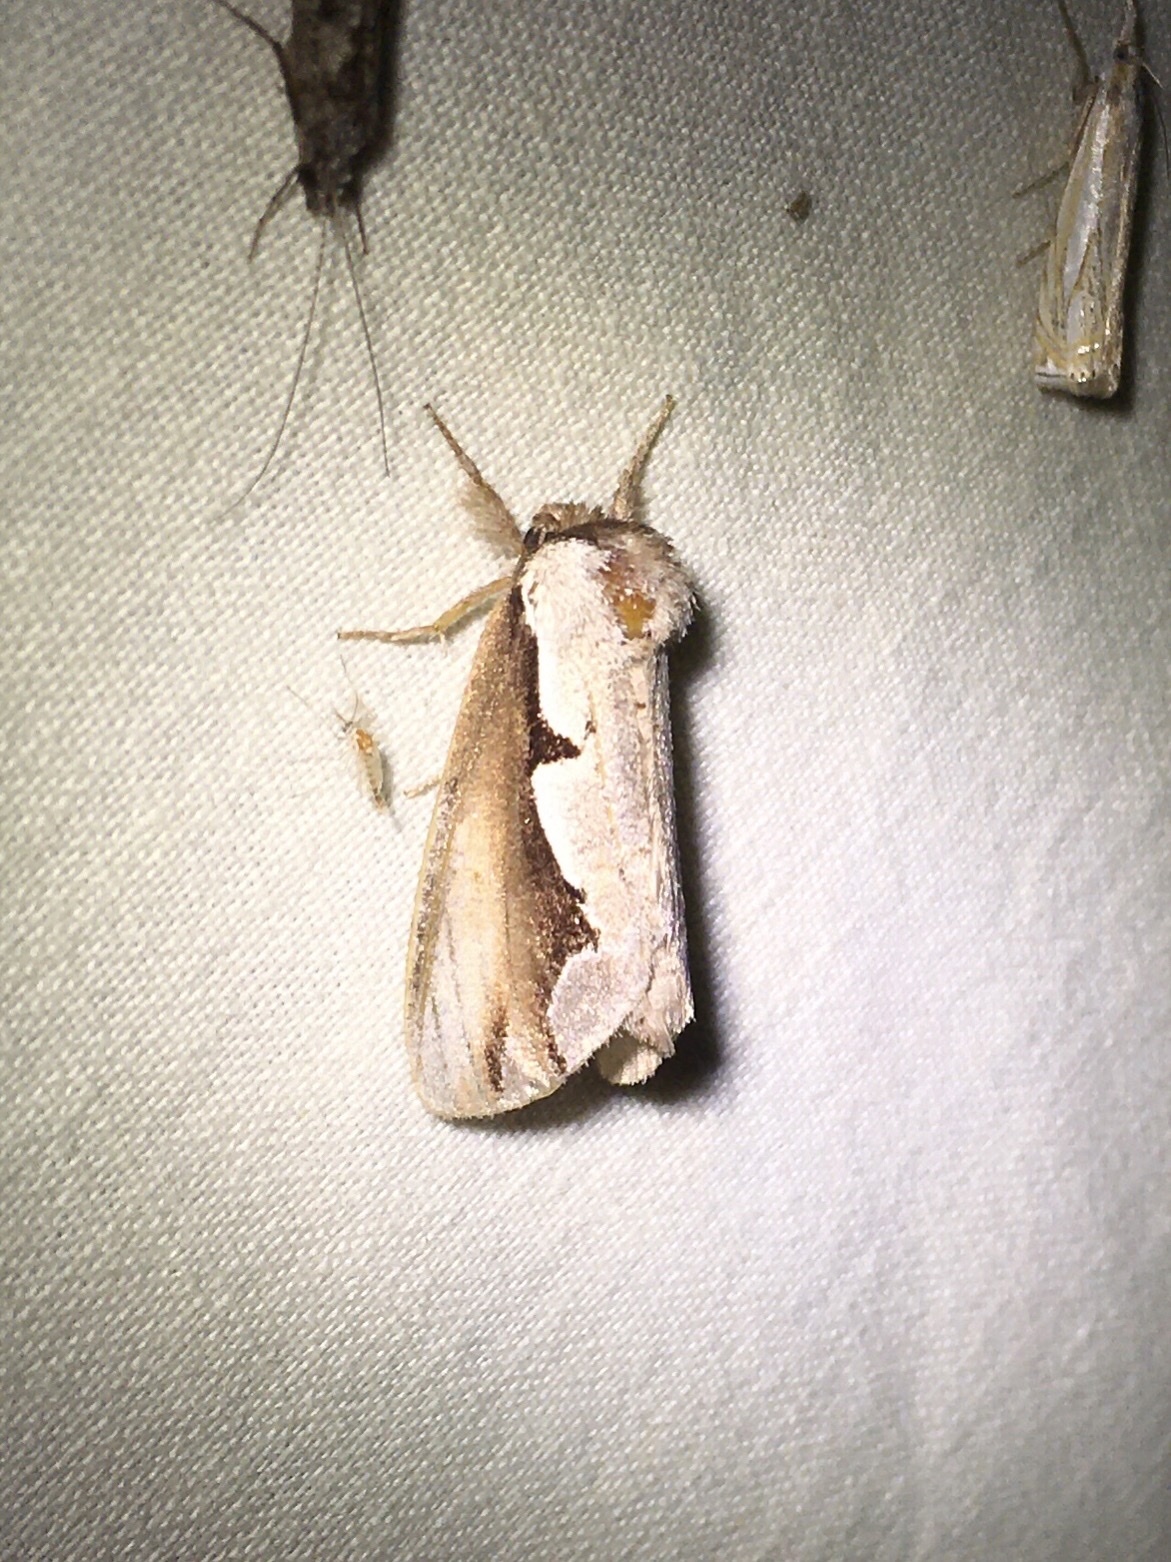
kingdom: Animalia
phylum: Arthropoda
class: Insecta
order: Lepidoptera
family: Notodontidae
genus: Nerice
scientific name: Nerice bidentata
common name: Double-toothed prominent
